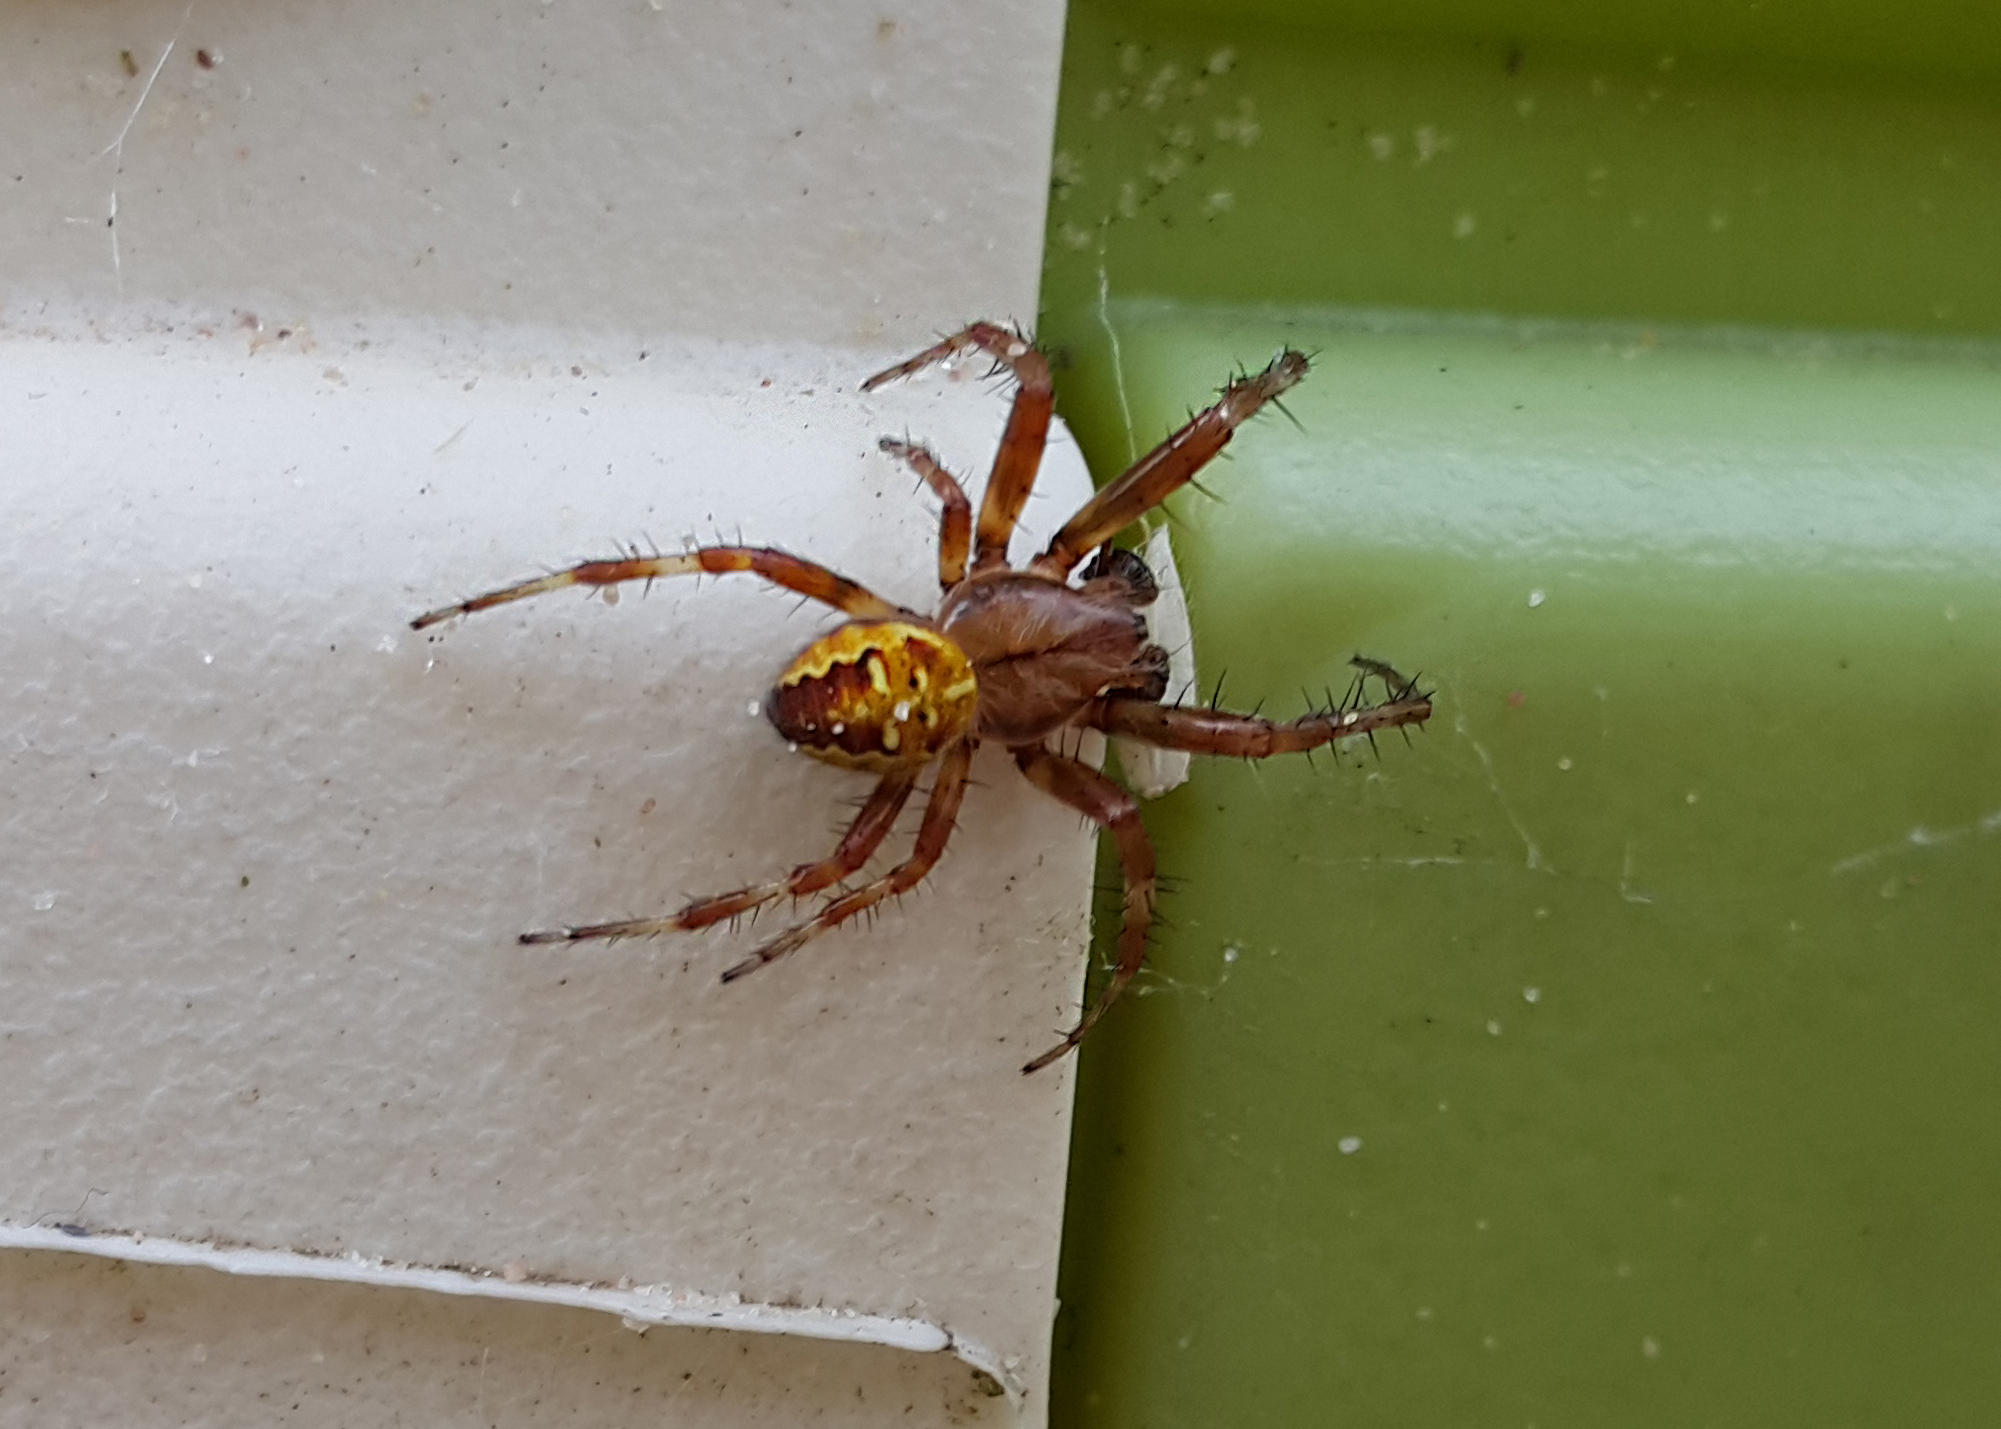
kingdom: Animalia
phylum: Arthropoda
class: Arachnida
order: Araneae
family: Araneidae
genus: Araneus
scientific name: Araneus quadratus
